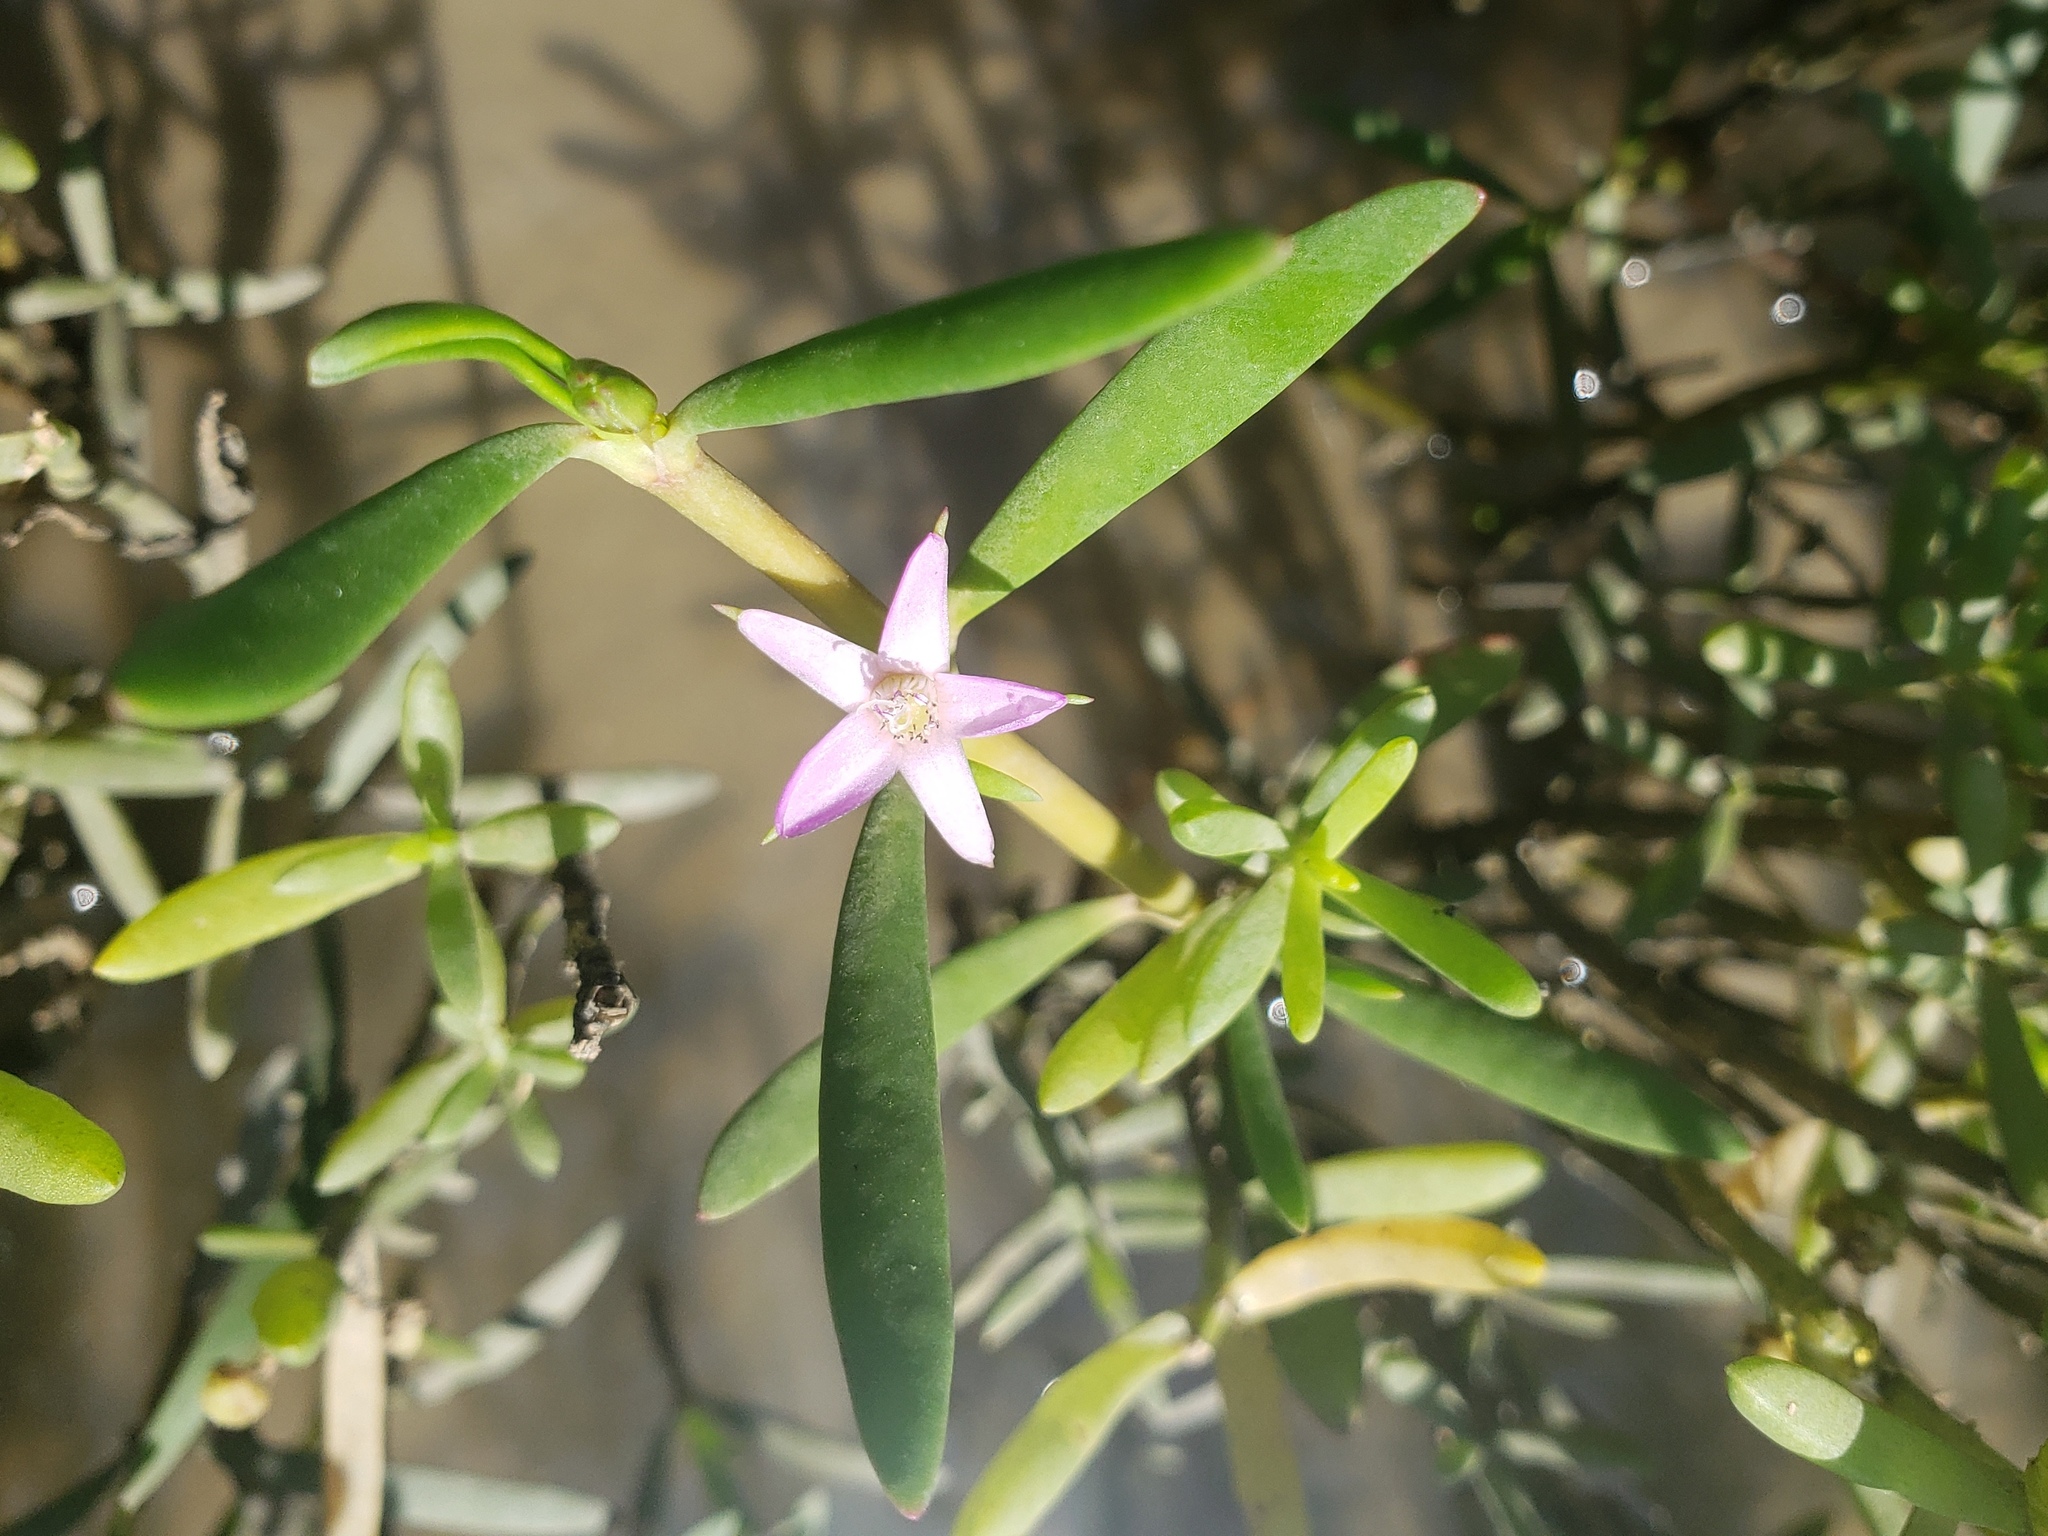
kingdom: Plantae
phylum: Tracheophyta
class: Magnoliopsida
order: Caryophyllales
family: Aizoaceae
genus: Sesuvium
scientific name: Sesuvium portulacastrum
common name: Sea-purslane
